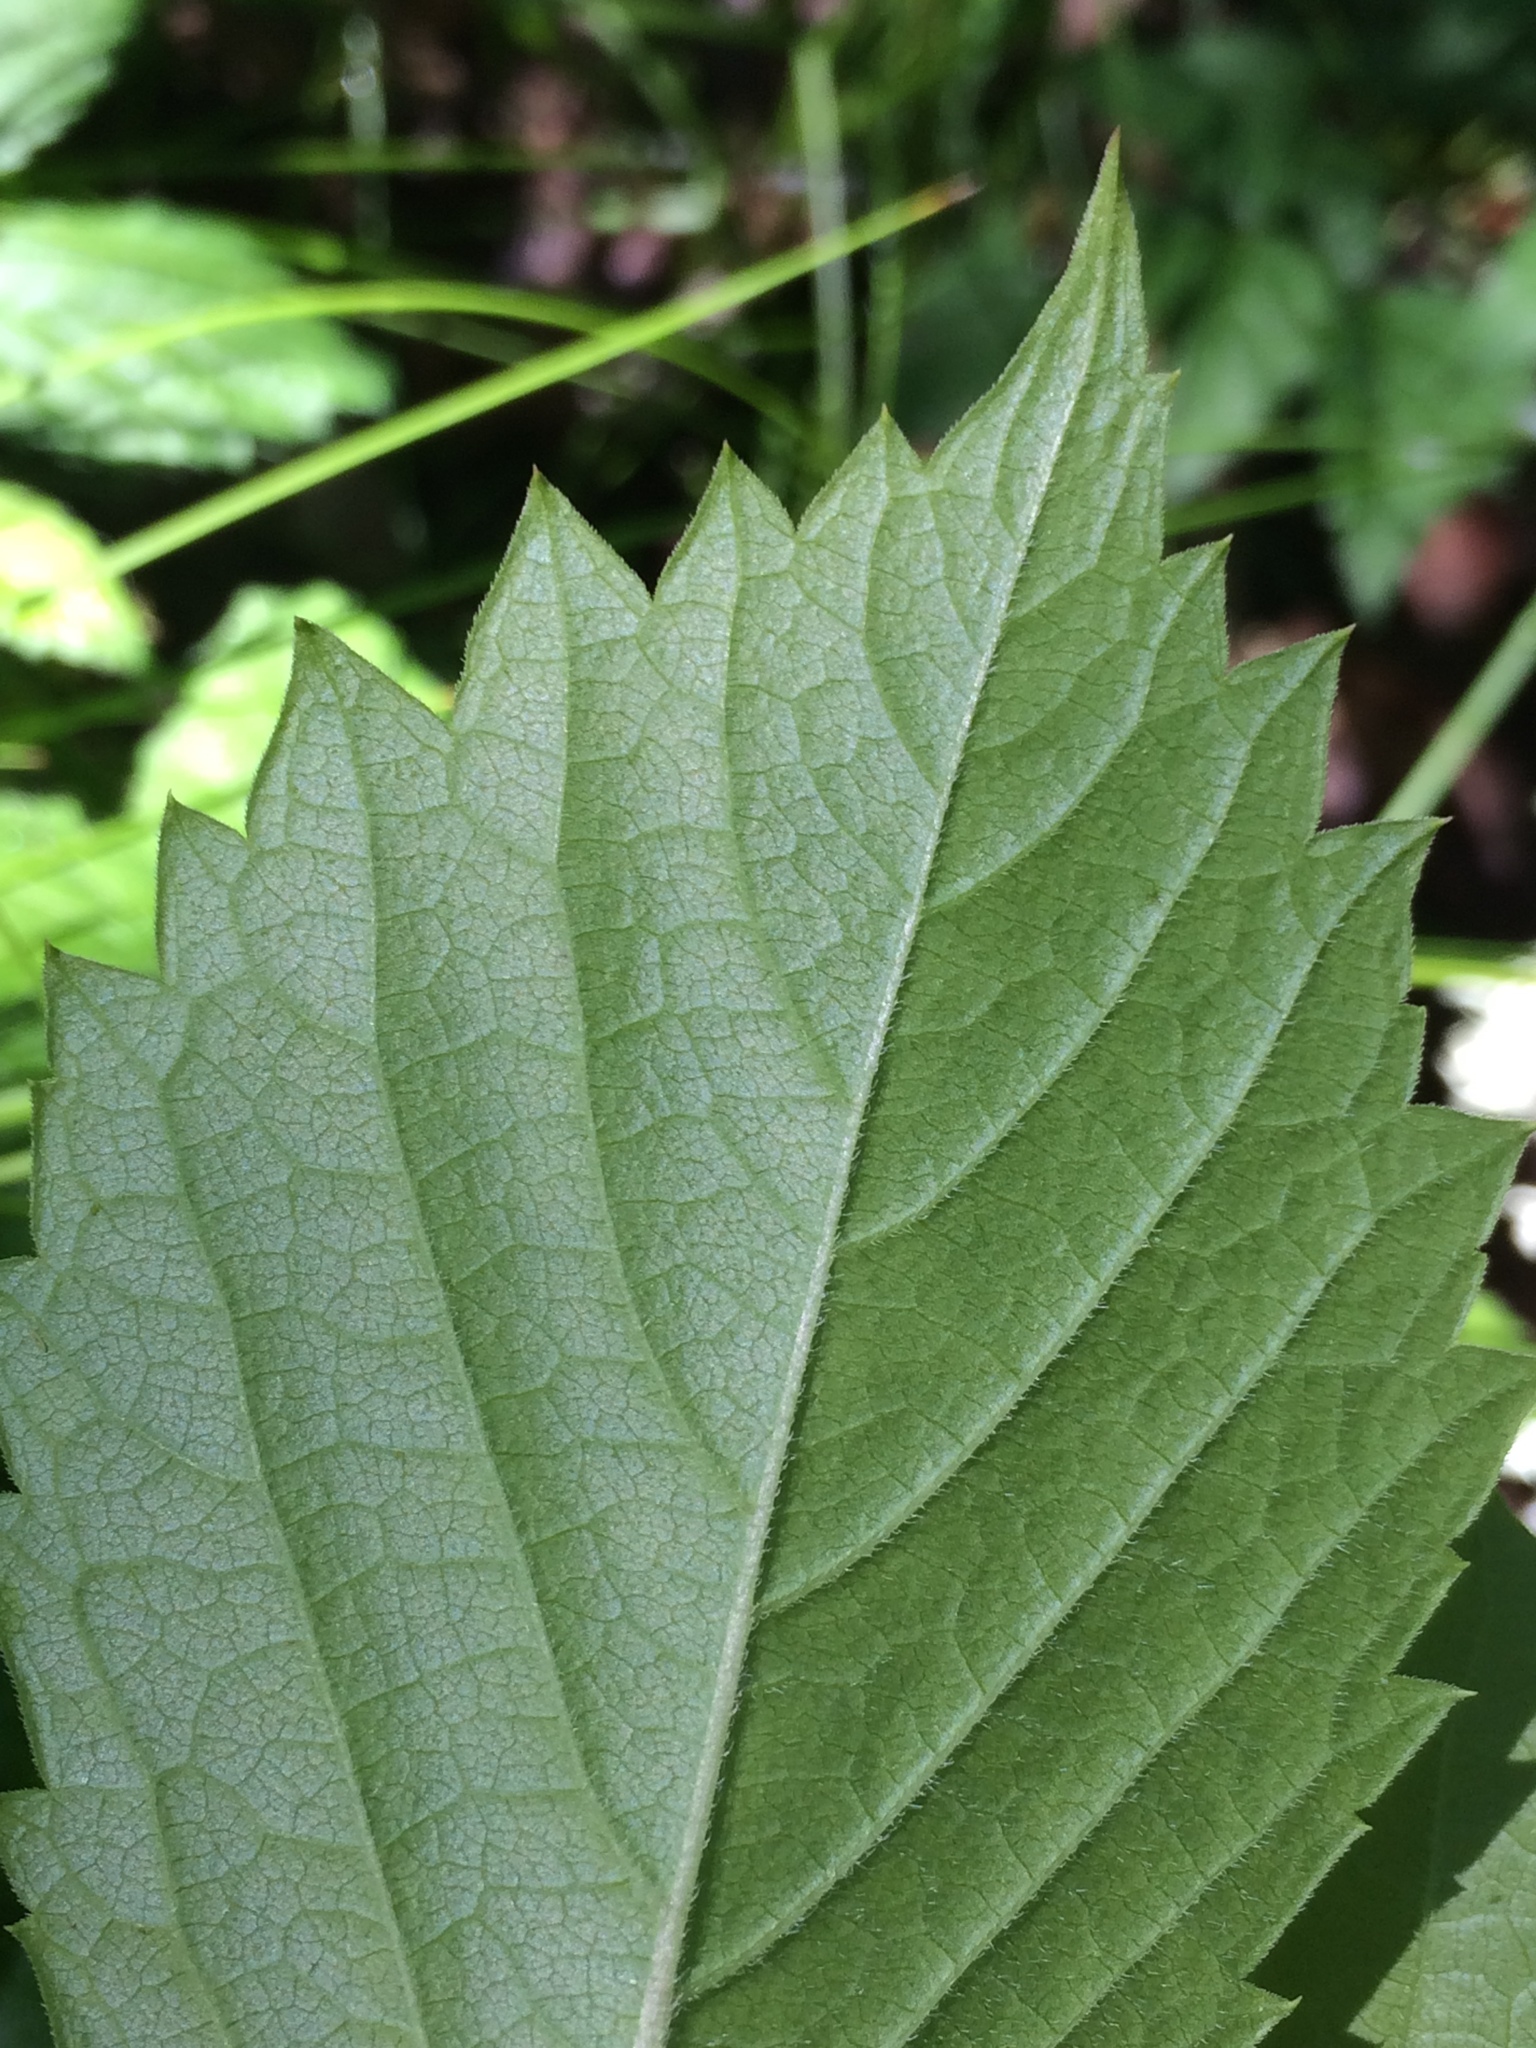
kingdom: Plantae
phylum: Tracheophyta
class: Magnoliopsida
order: Vitales
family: Vitaceae
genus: Parthenocissus
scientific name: Parthenocissus inserta
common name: False virginia-creeper
